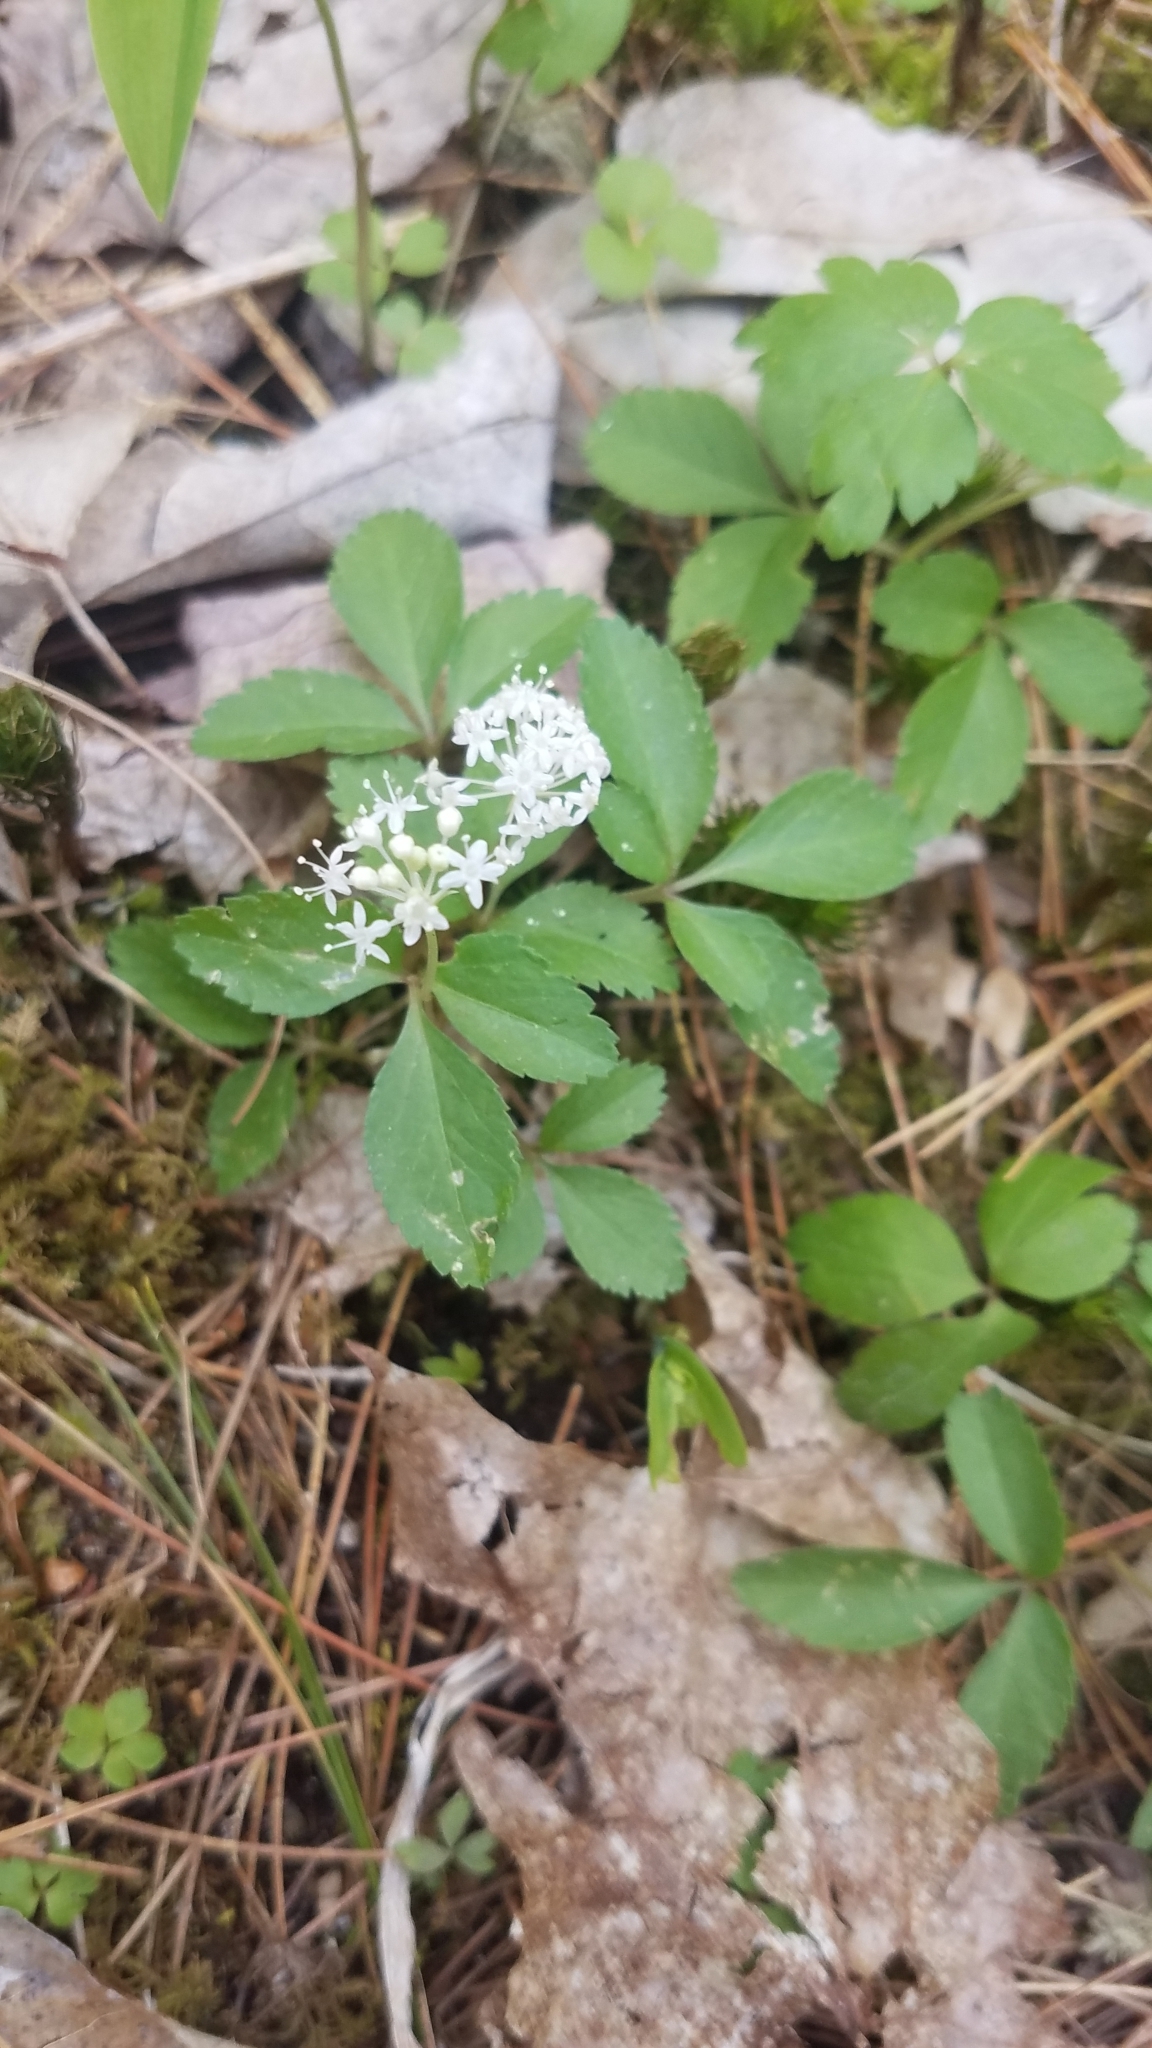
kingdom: Plantae
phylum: Tracheophyta
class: Magnoliopsida
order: Apiales
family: Araliaceae
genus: Panax
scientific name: Panax trifolius
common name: Dwarf ginseng
